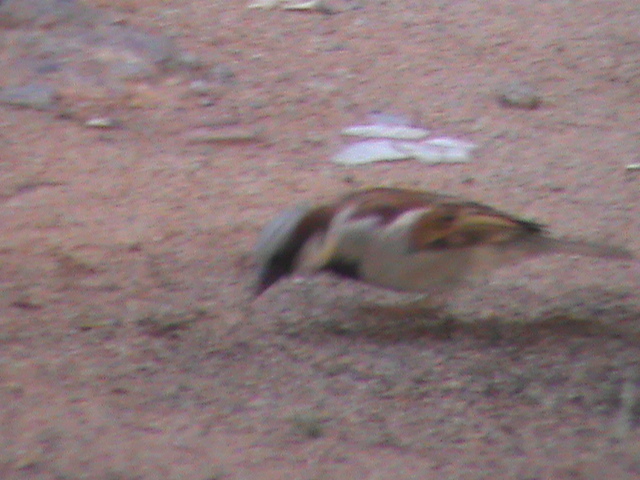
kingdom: Animalia
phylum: Chordata
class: Aves
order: Passeriformes
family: Passeridae
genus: Passer
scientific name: Passer domesticus
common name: House sparrow
